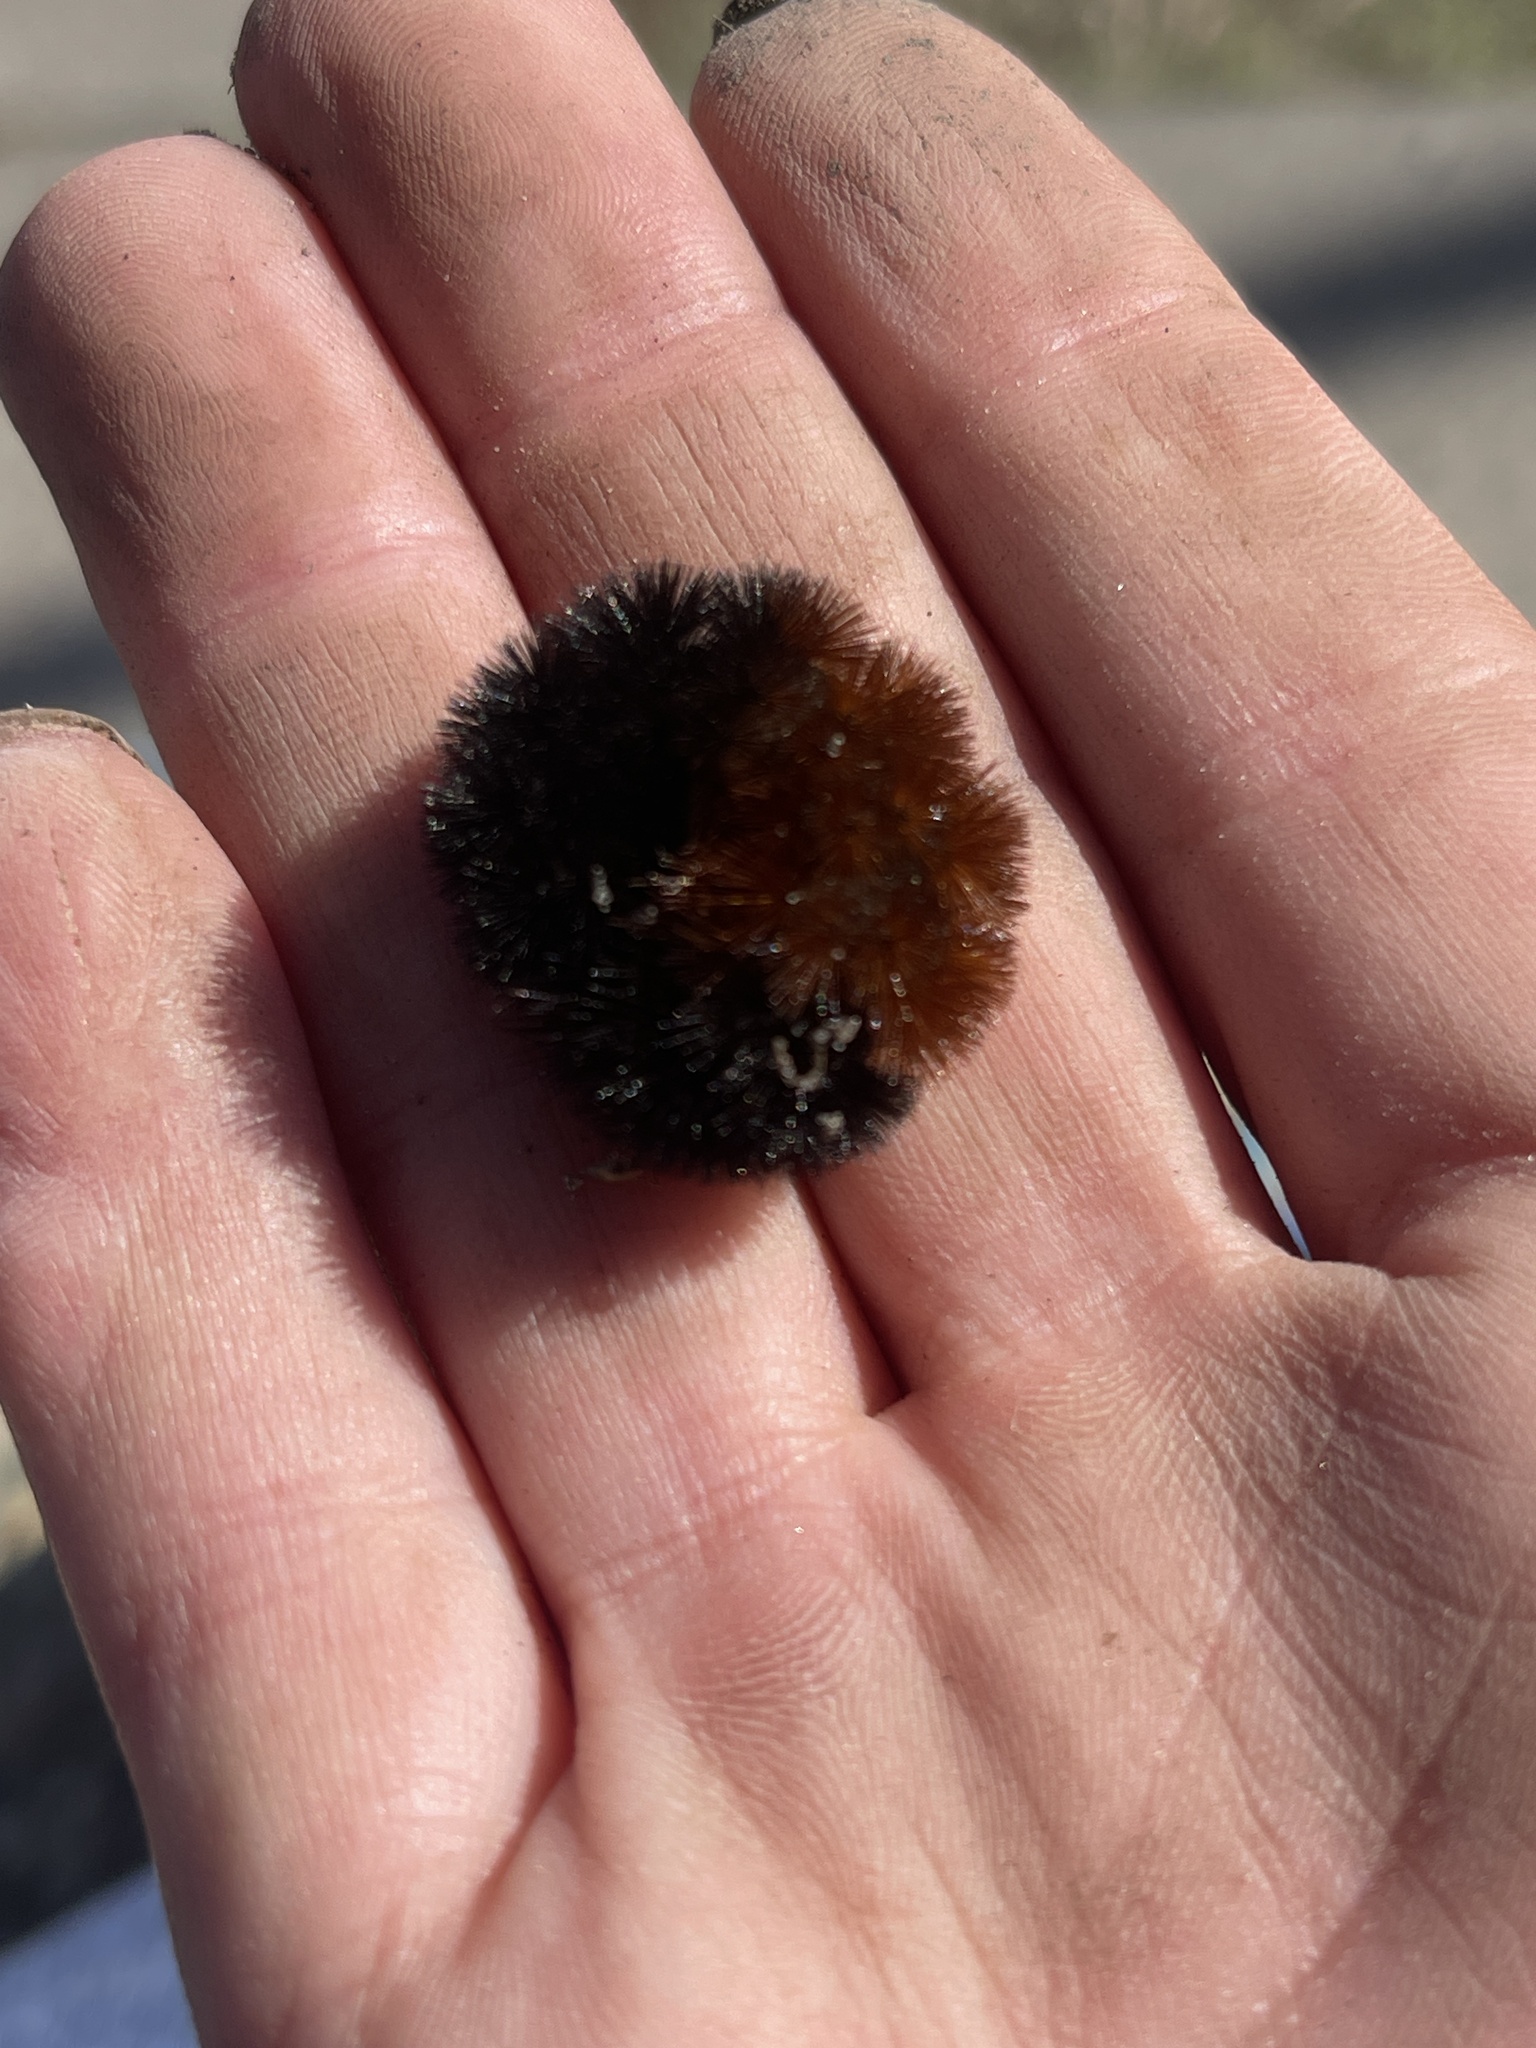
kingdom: Animalia
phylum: Arthropoda
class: Insecta
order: Lepidoptera
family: Erebidae
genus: Pyrrharctia
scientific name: Pyrrharctia isabella
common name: Isabella tiger moth
